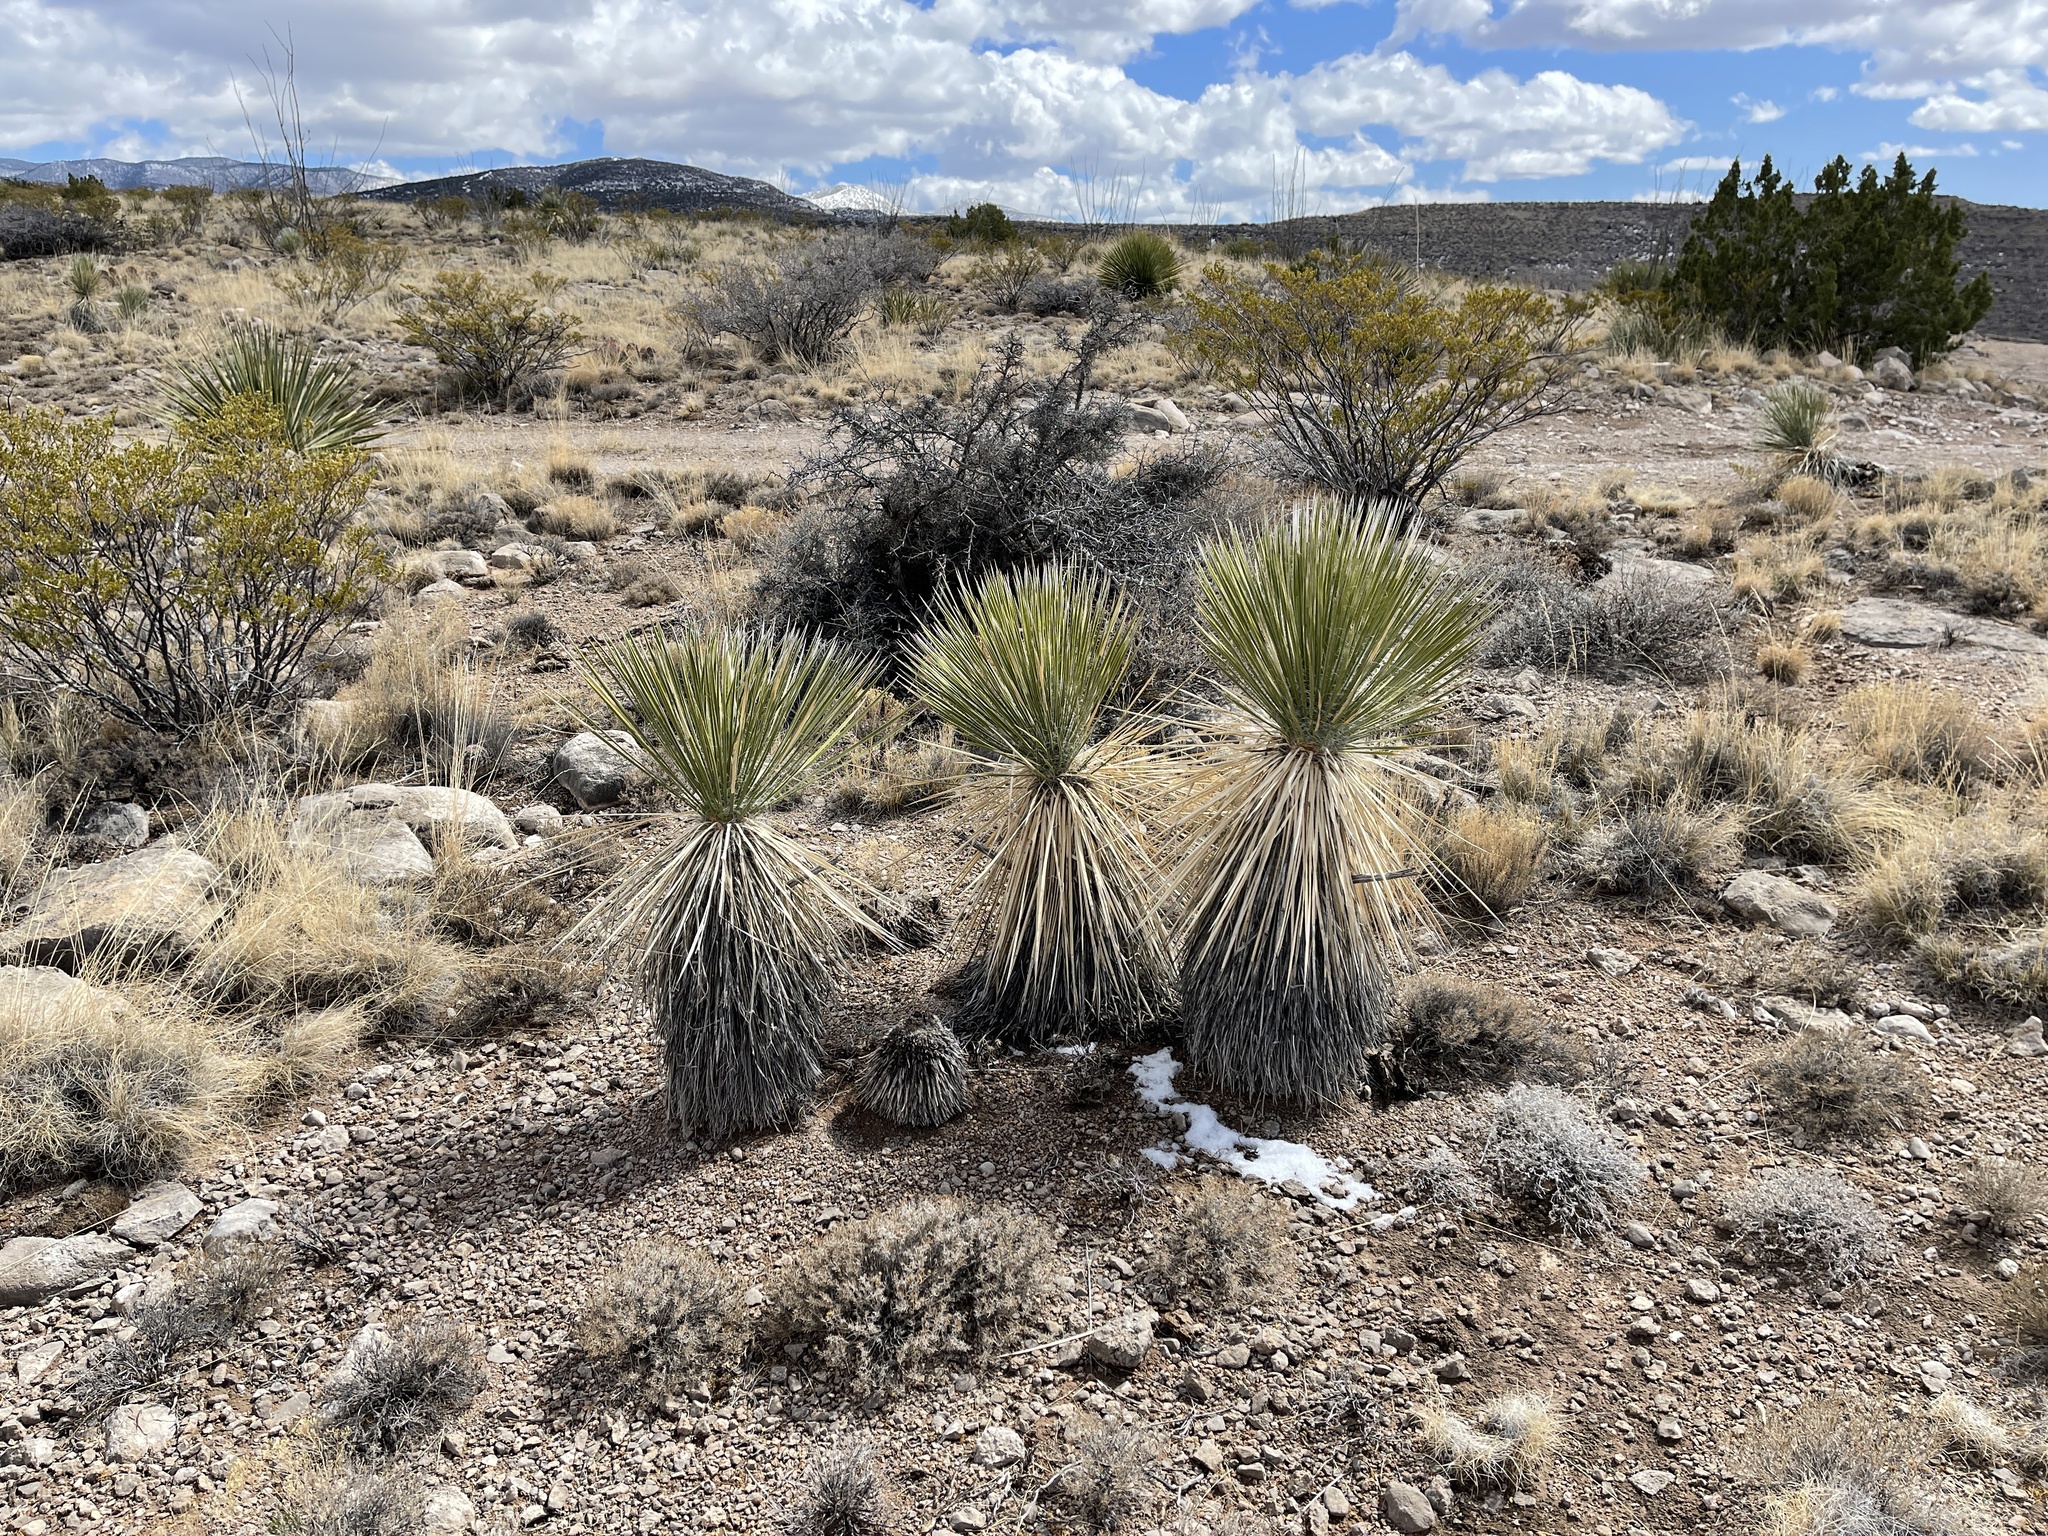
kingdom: Plantae
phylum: Tracheophyta
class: Liliopsida
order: Asparagales
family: Asparagaceae
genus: Yucca
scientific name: Yucca elata
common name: Palmella
